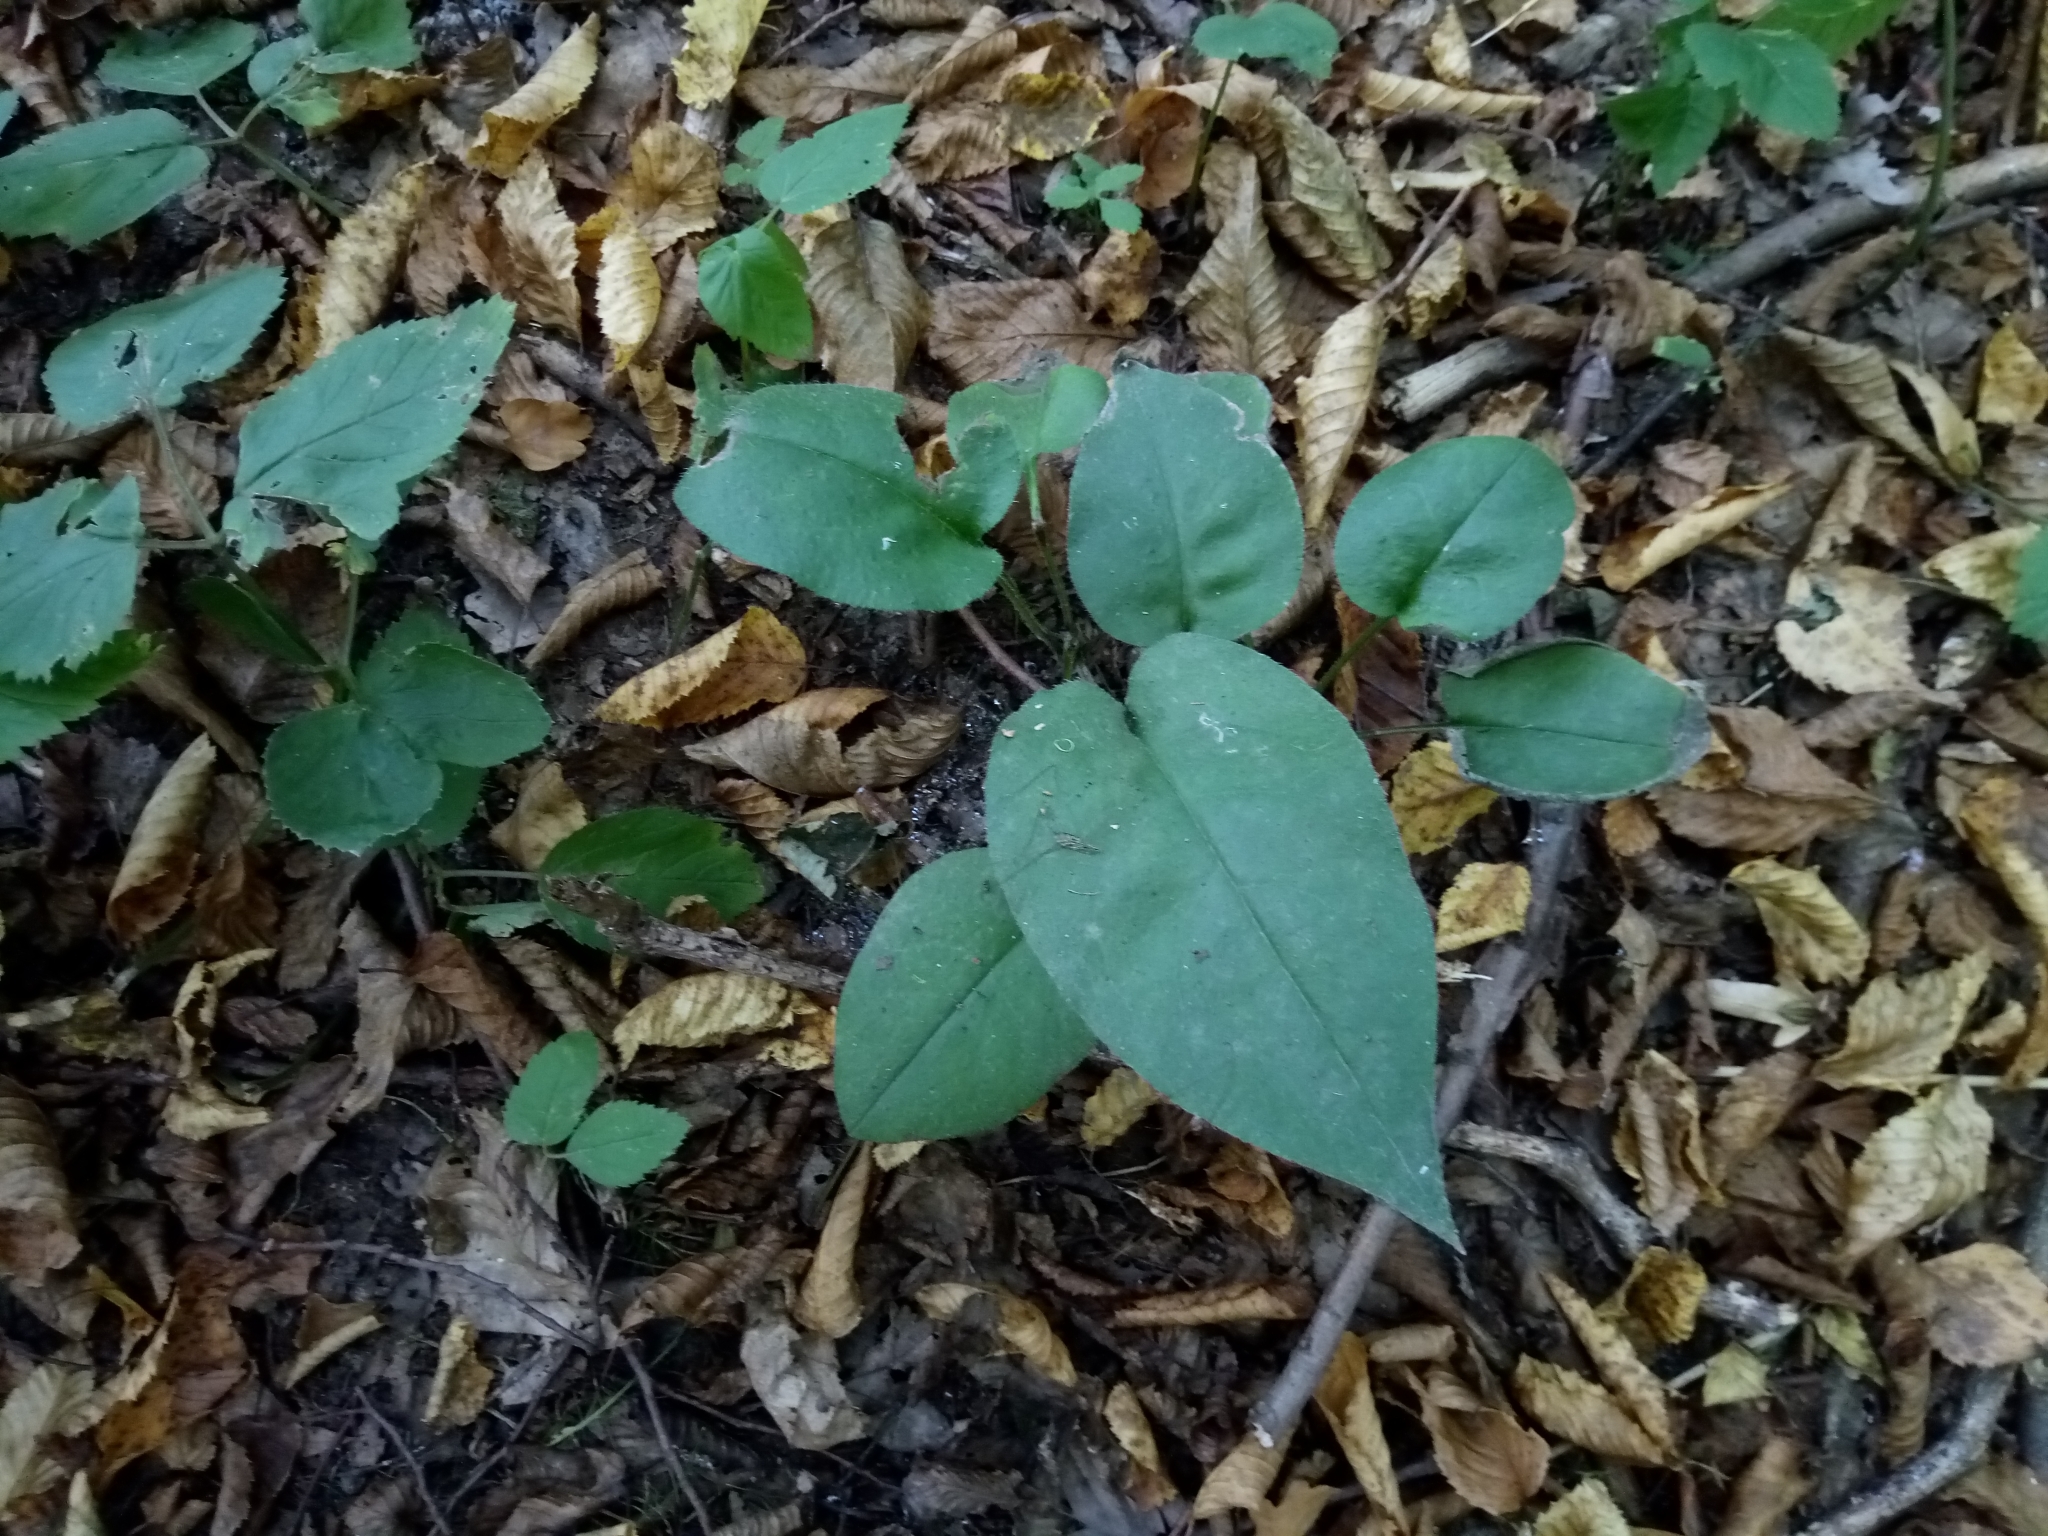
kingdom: Plantae
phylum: Tracheophyta
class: Magnoliopsida
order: Boraginales
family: Boraginaceae
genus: Pulmonaria
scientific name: Pulmonaria obscura
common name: Suffolk lungwort
